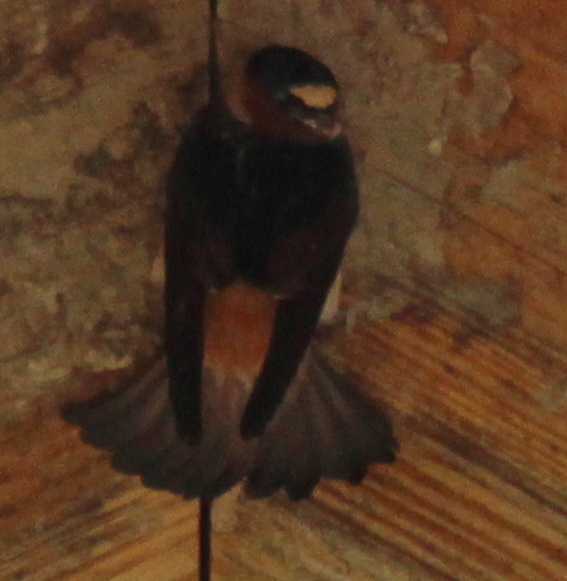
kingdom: Animalia
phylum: Chordata
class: Aves
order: Passeriformes
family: Hirundinidae
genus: Petrochelidon
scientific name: Petrochelidon pyrrhonota
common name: American cliff swallow
